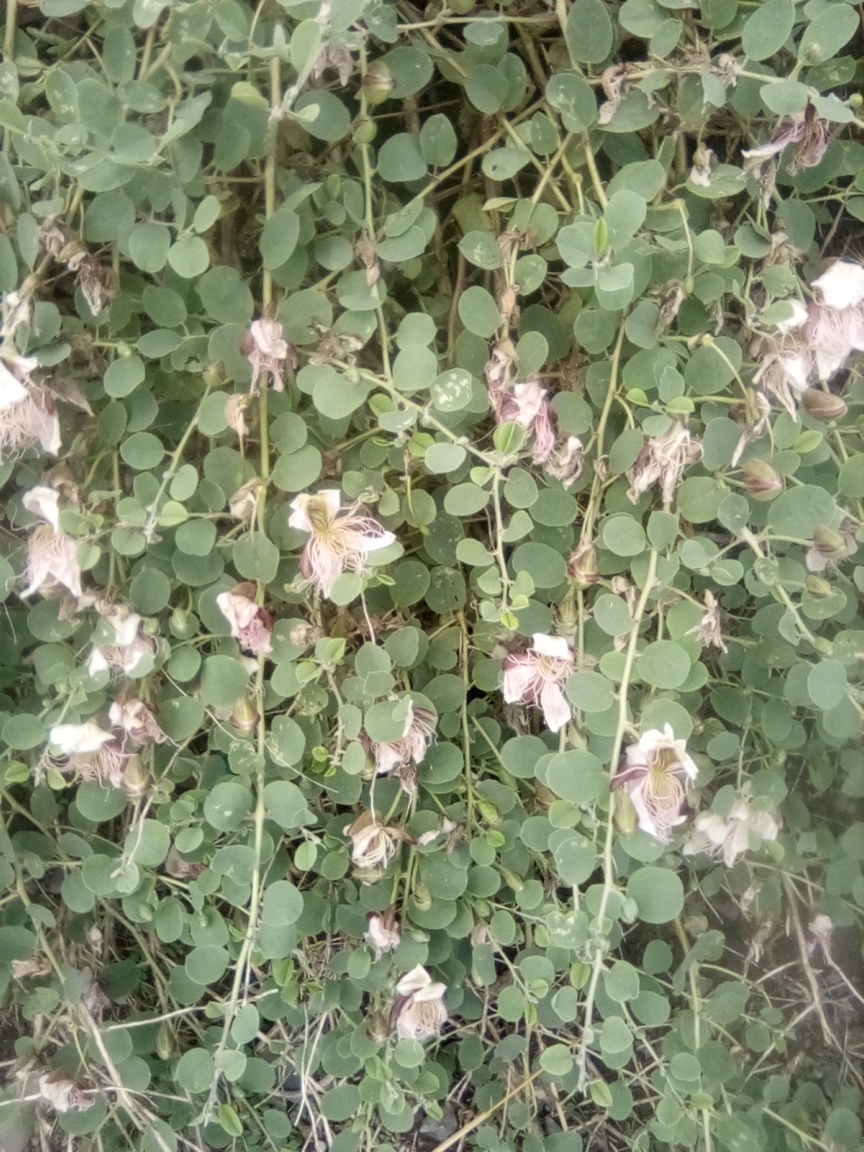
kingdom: Plantae
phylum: Tracheophyta
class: Magnoliopsida
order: Brassicales
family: Capparaceae
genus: Capparis
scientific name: Capparis spinosa
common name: Caper
